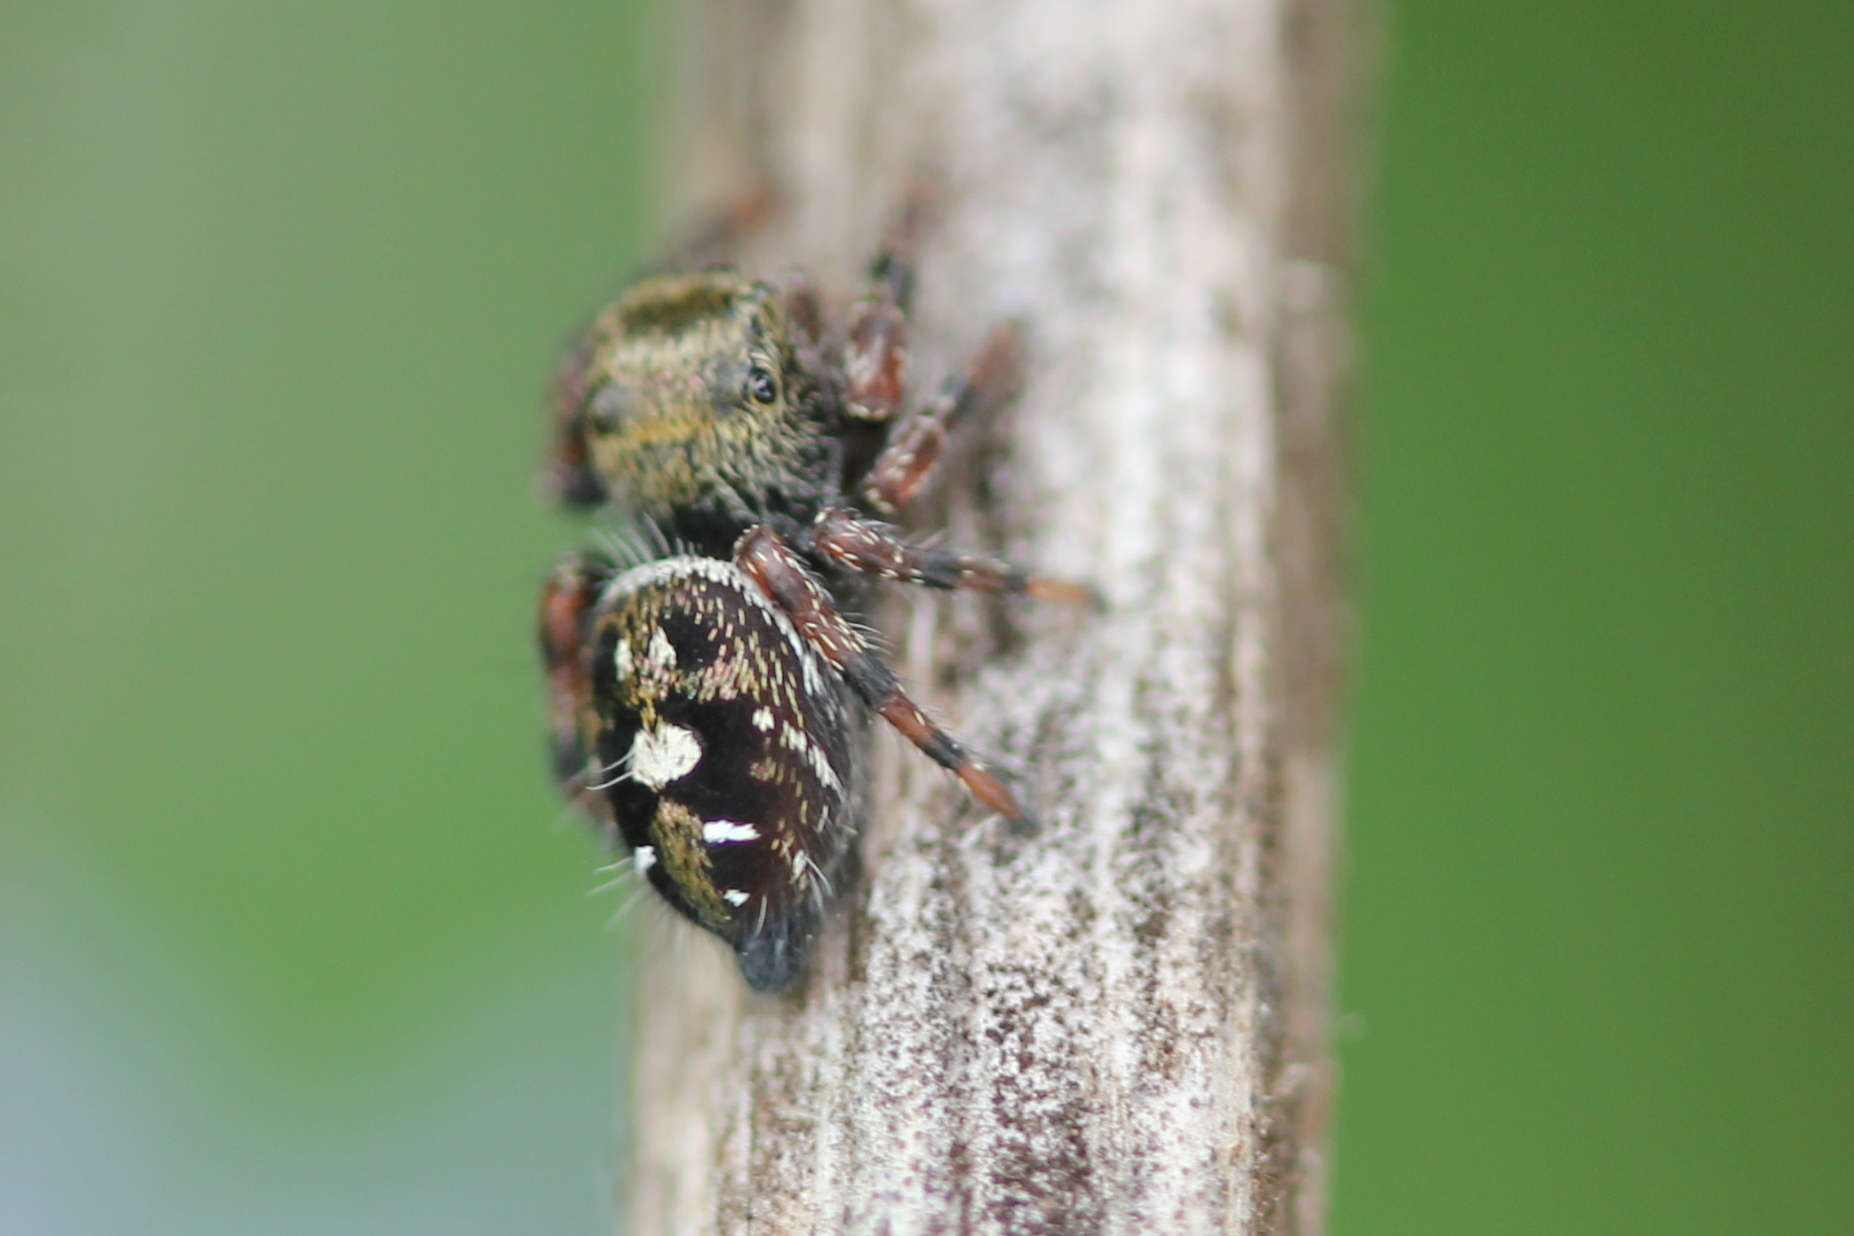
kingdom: Animalia
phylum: Arthropoda
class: Arachnida
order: Araneae
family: Salticidae
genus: Phidippus
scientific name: Phidippus audax
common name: Bold jumper
